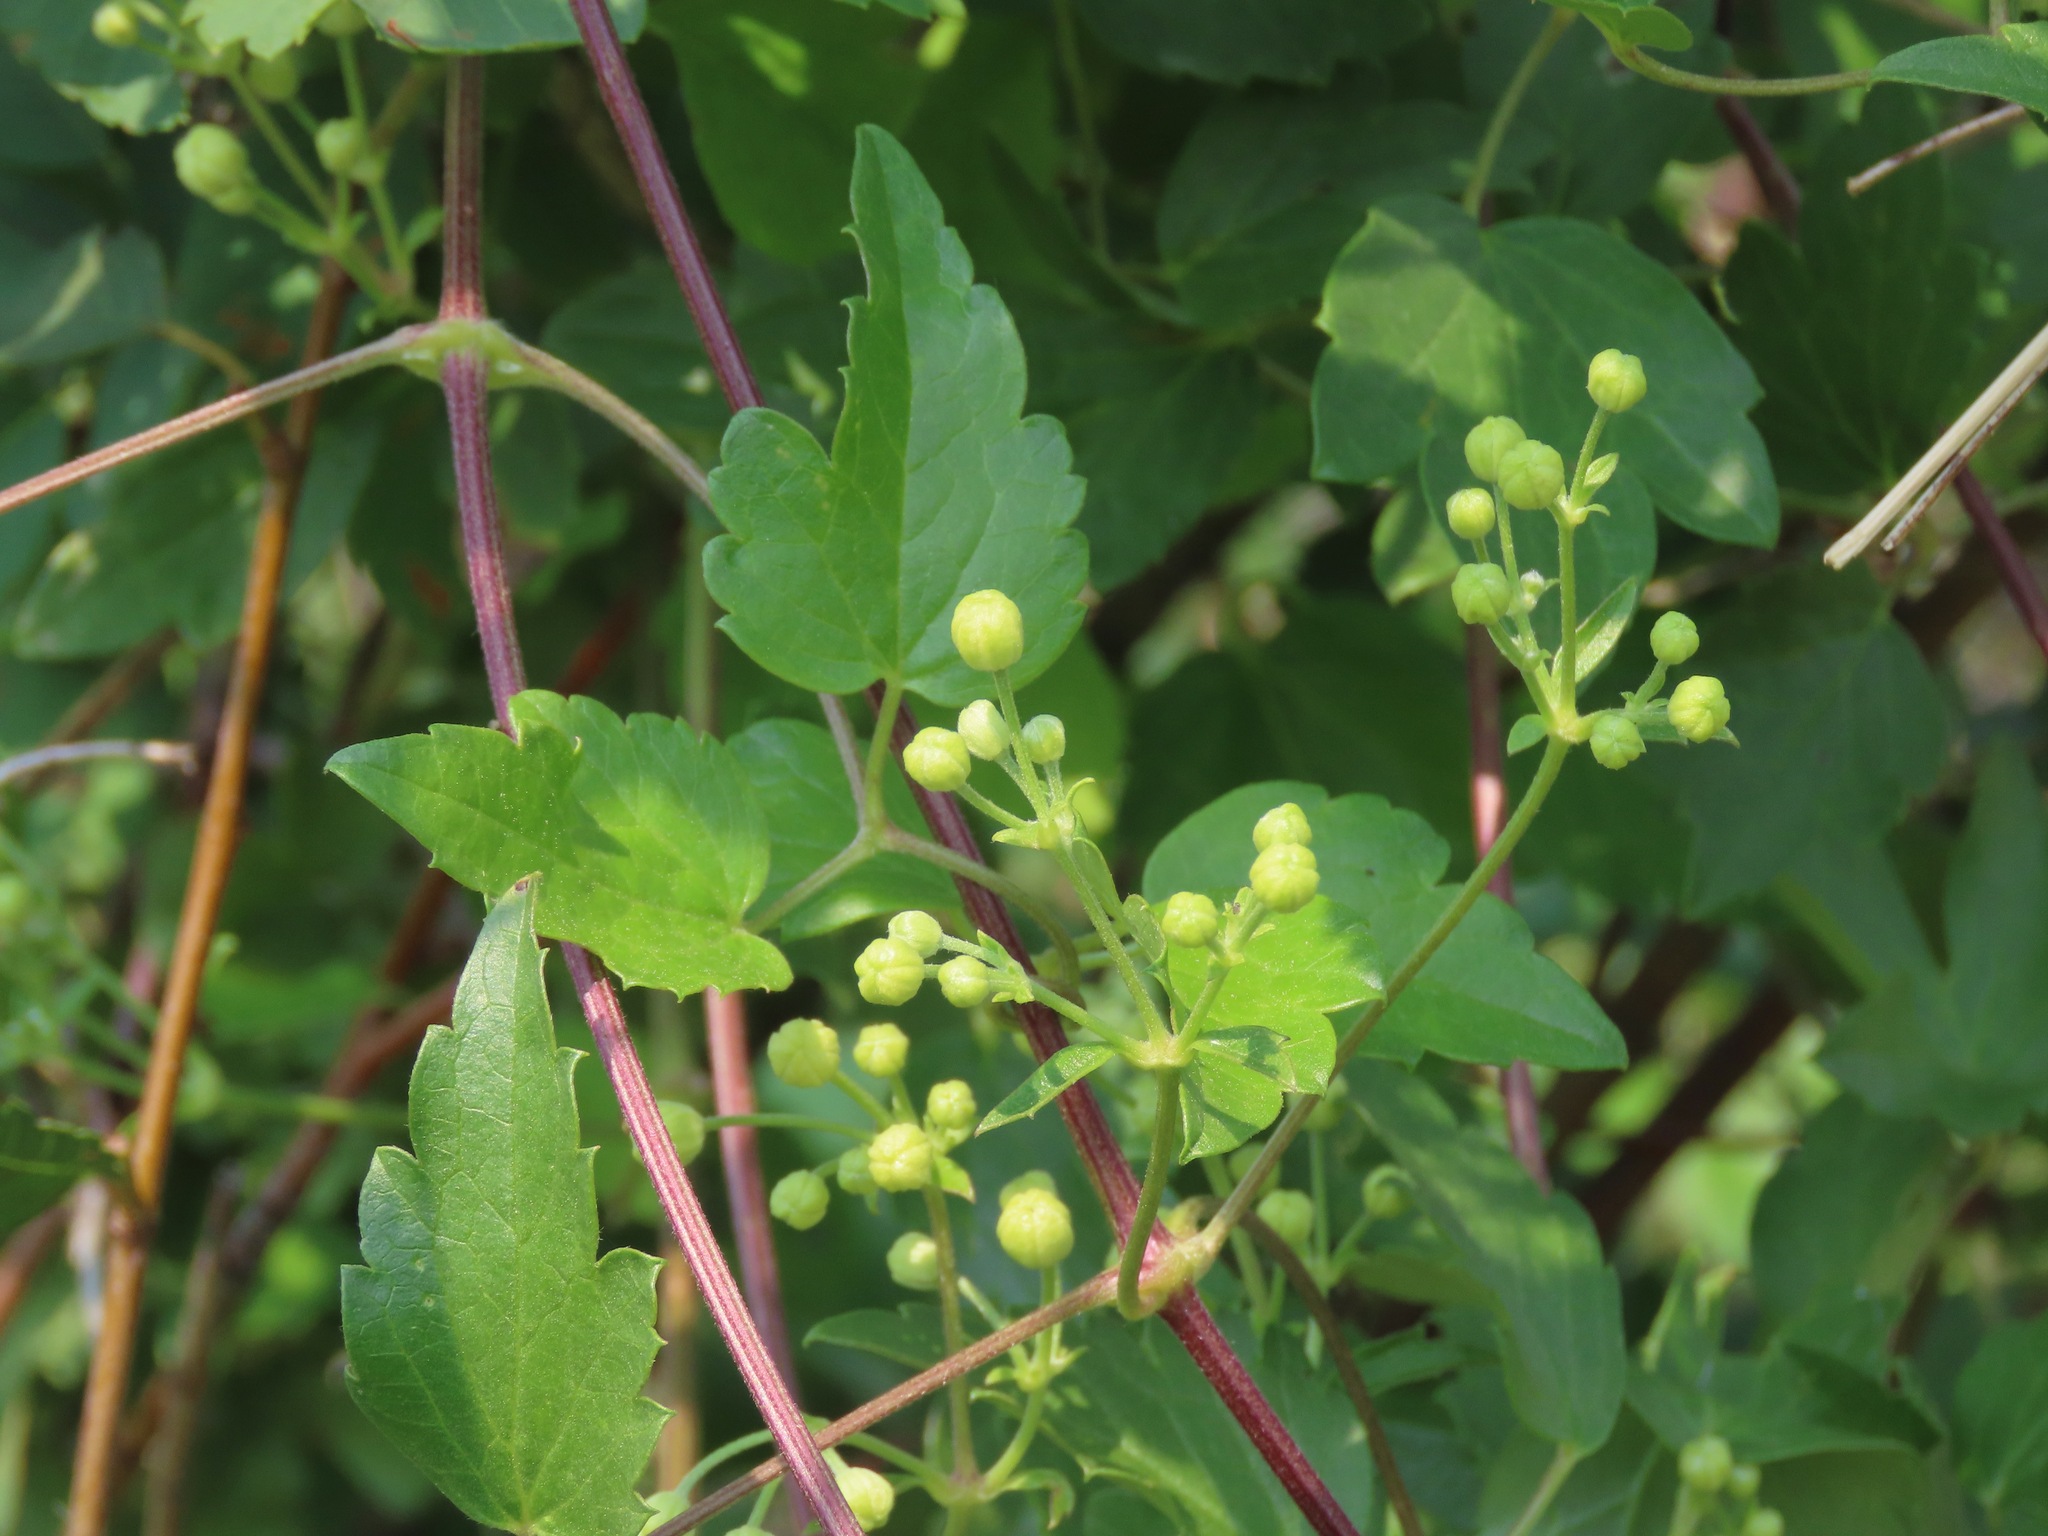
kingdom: Plantae
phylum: Tracheophyta
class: Magnoliopsida
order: Ranunculales
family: Ranunculaceae
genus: Clematis
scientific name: Clematis ligusticifolia
